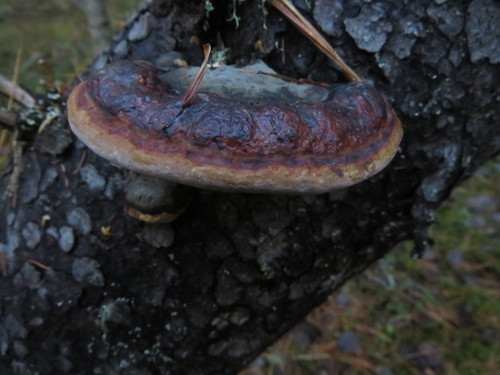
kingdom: Fungi
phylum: Basidiomycota
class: Agaricomycetes
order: Polyporales
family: Fomitopsidaceae
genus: Fomitopsis
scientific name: Fomitopsis pinicola
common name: Red-belted bracket
